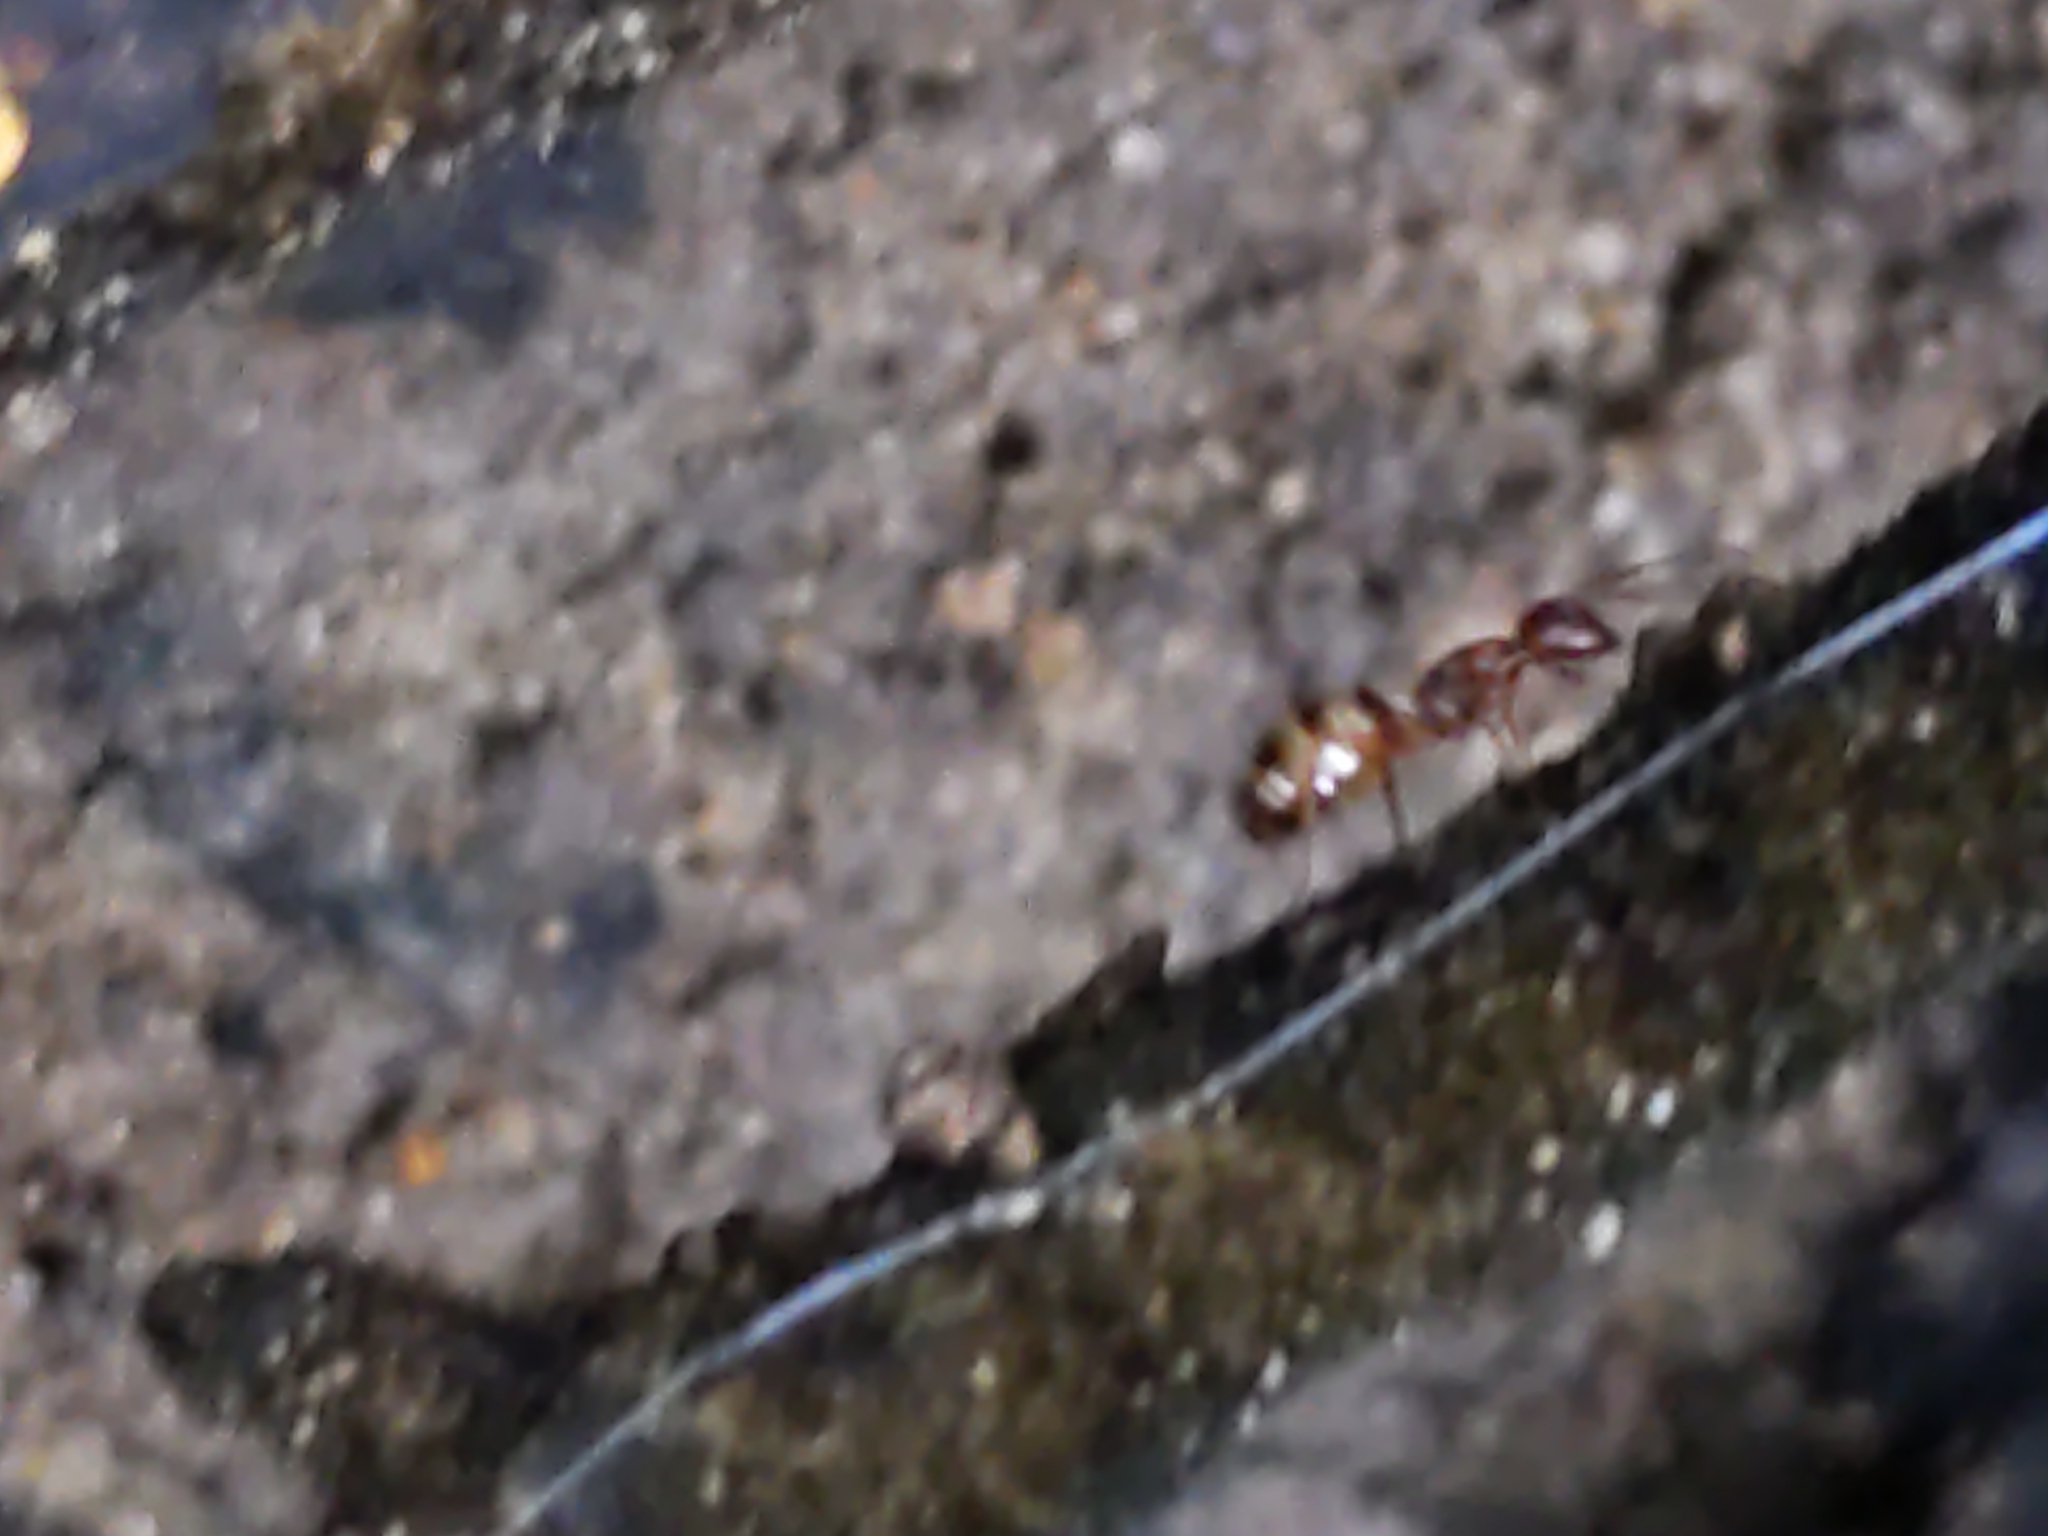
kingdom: Animalia
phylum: Arthropoda
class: Insecta
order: Hymenoptera
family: Formicidae
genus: Camponotus
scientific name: Camponotus subbarbatus
